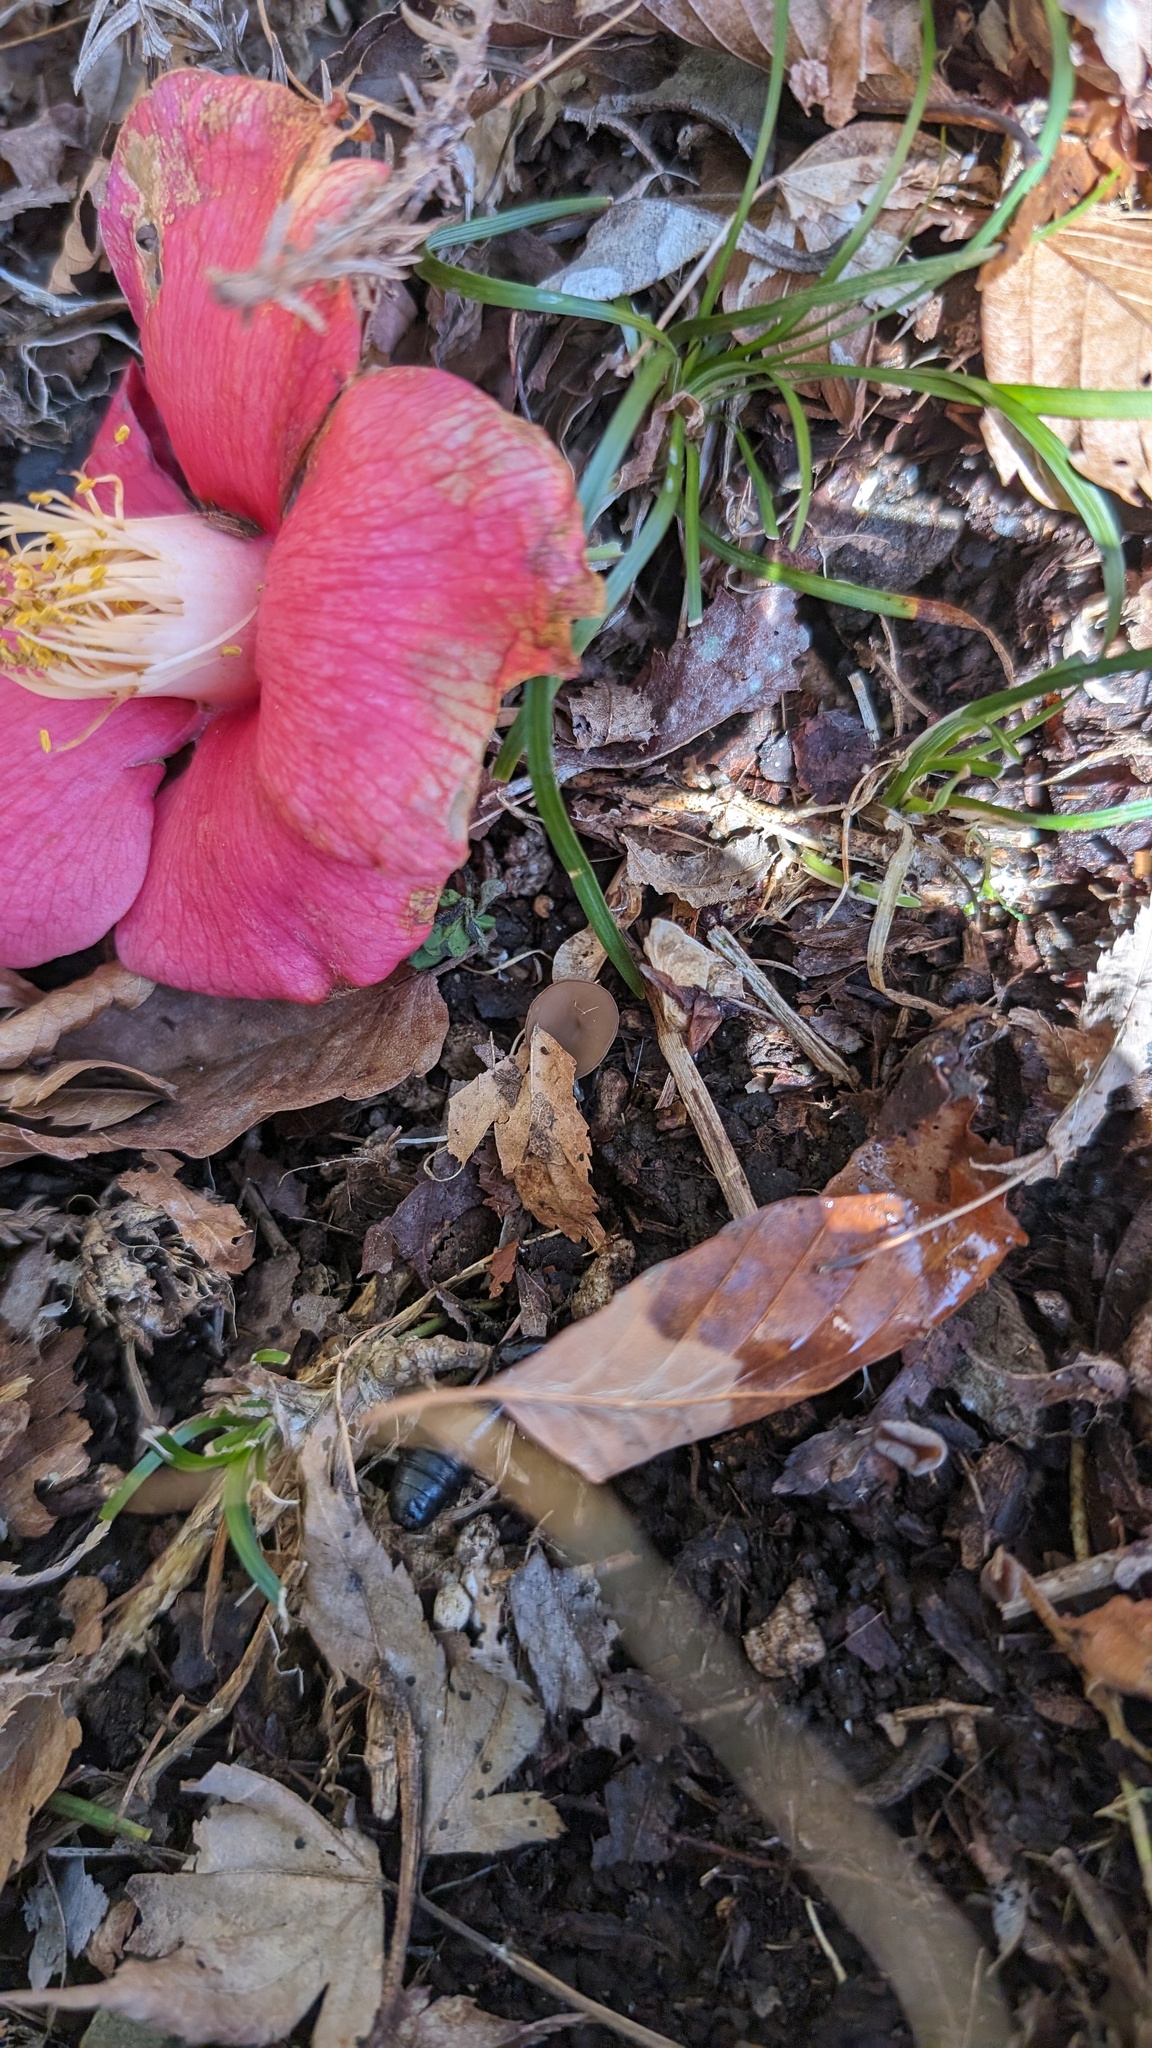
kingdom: Fungi
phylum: Ascomycota
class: Leotiomycetes
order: Helotiales
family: Sclerotiniaceae
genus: Ciborinia
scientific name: Ciborinia camelliae
